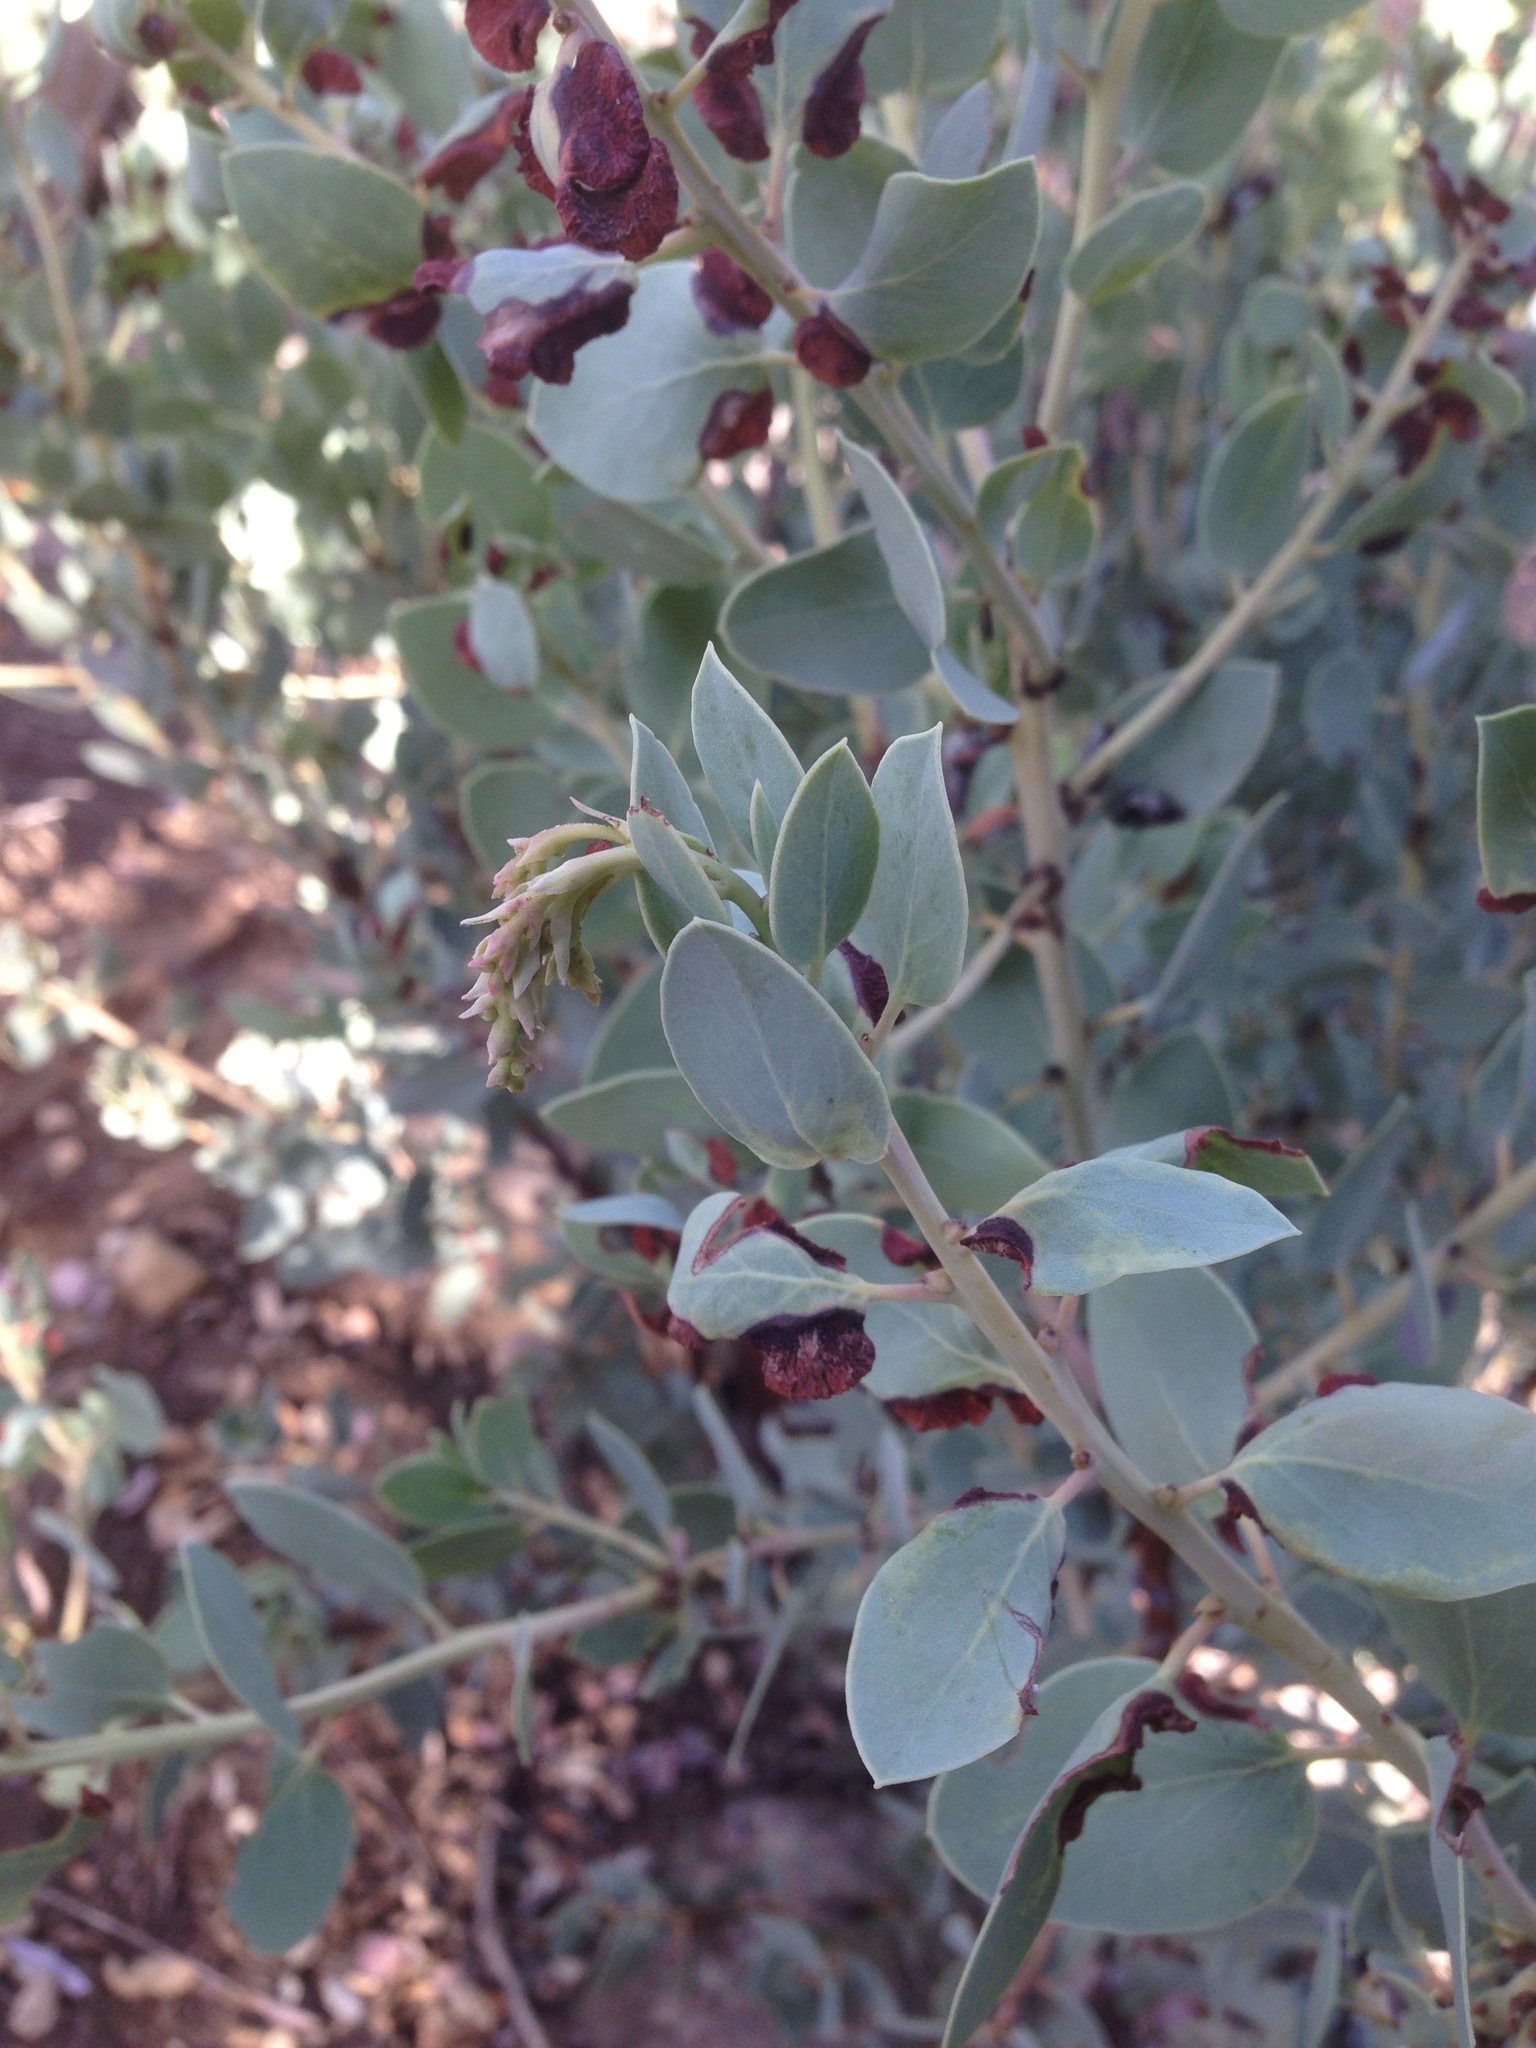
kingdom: Plantae
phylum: Tracheophyta
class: Magnoliopsida
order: Ericales
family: Ericaceae
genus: Arctostaphylos
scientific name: Arctostaphylos glauca
